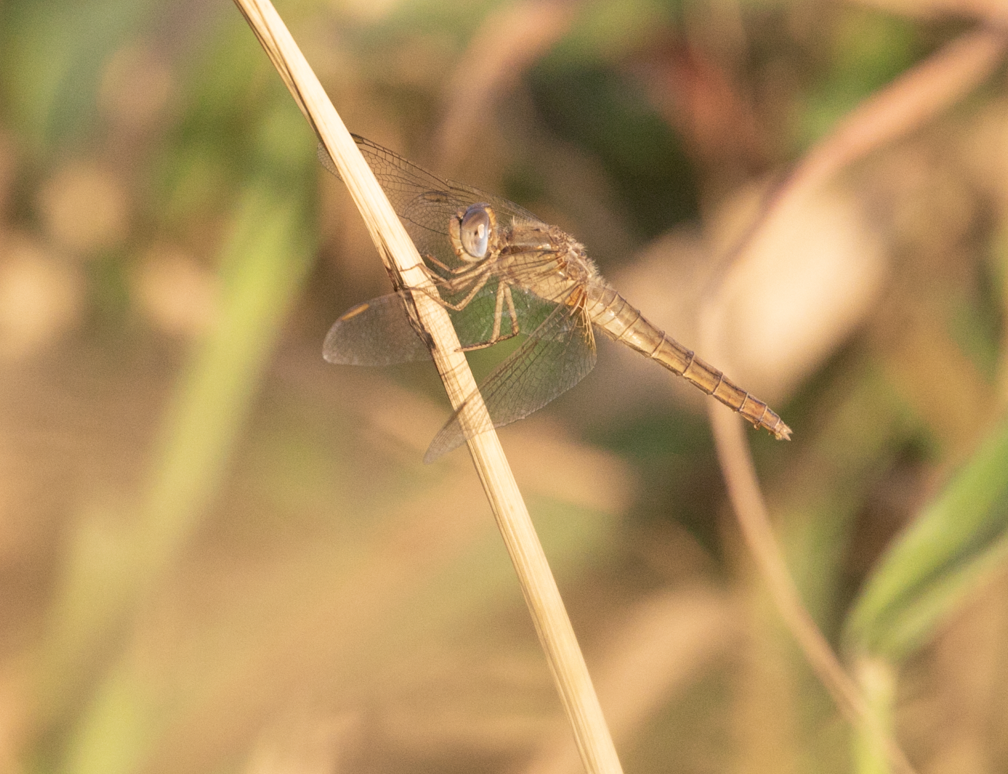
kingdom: Animalia
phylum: Arthropoda
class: Insecta
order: Odonata
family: Libellulidae
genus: Crocothemis
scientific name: Crocothemis erythraea
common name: Scarlet dragonfly
